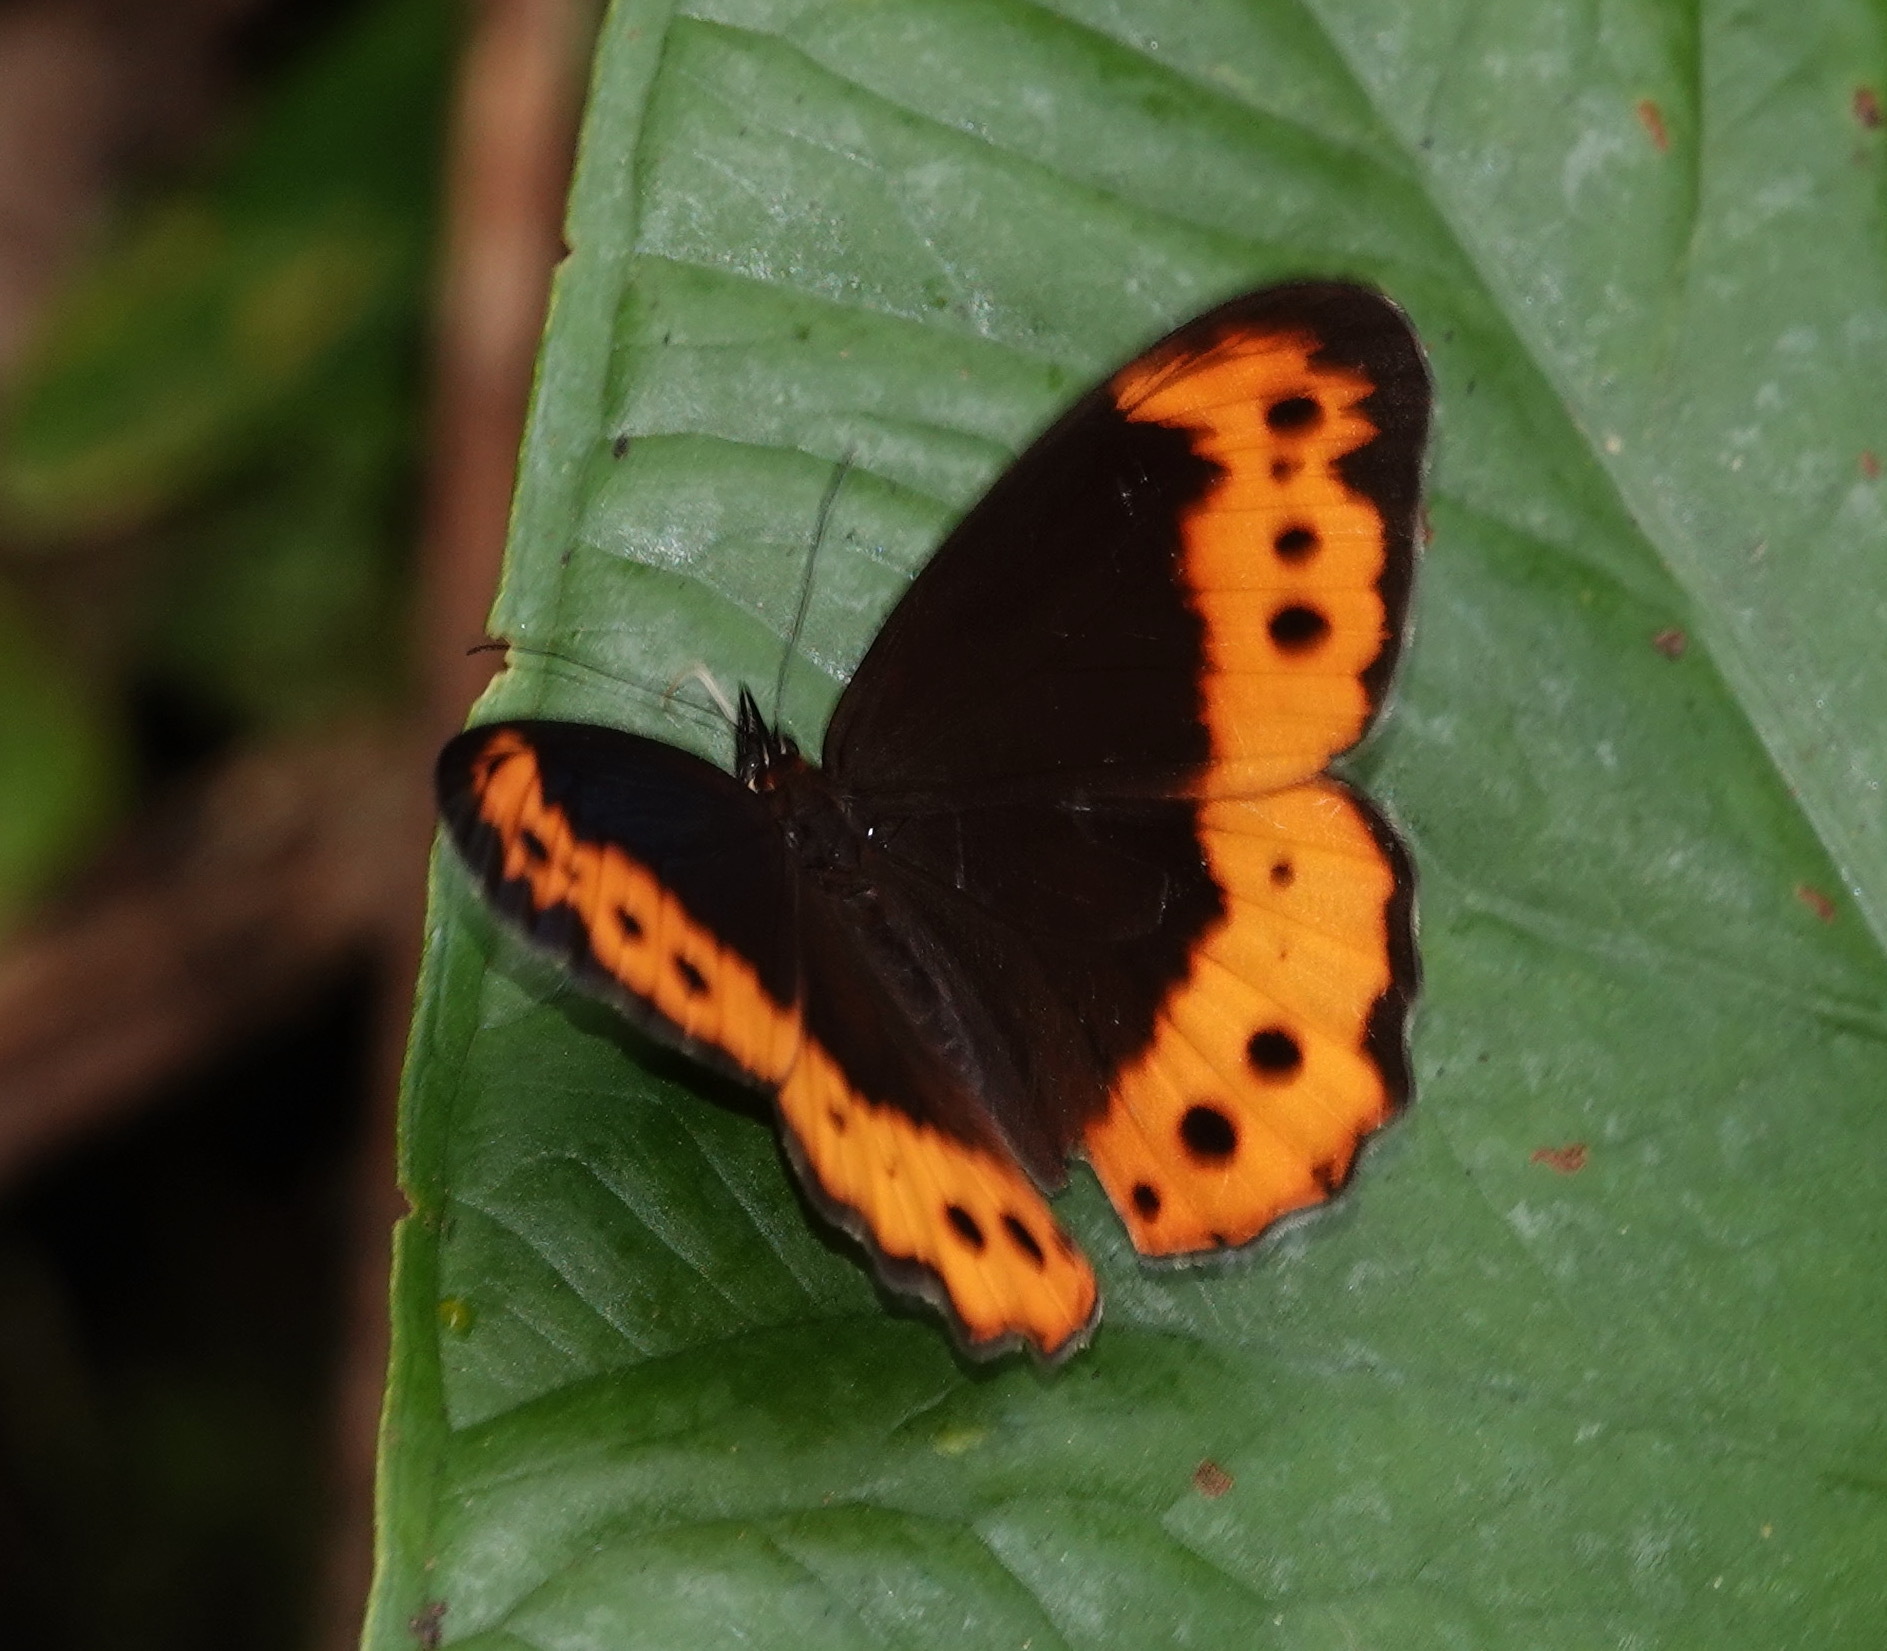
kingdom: Animalia
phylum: Arthropoda
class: Insecta
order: Lepidoptera
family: Nymphalidae
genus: Oxeoschistus
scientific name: Oxeoschistus pronax
